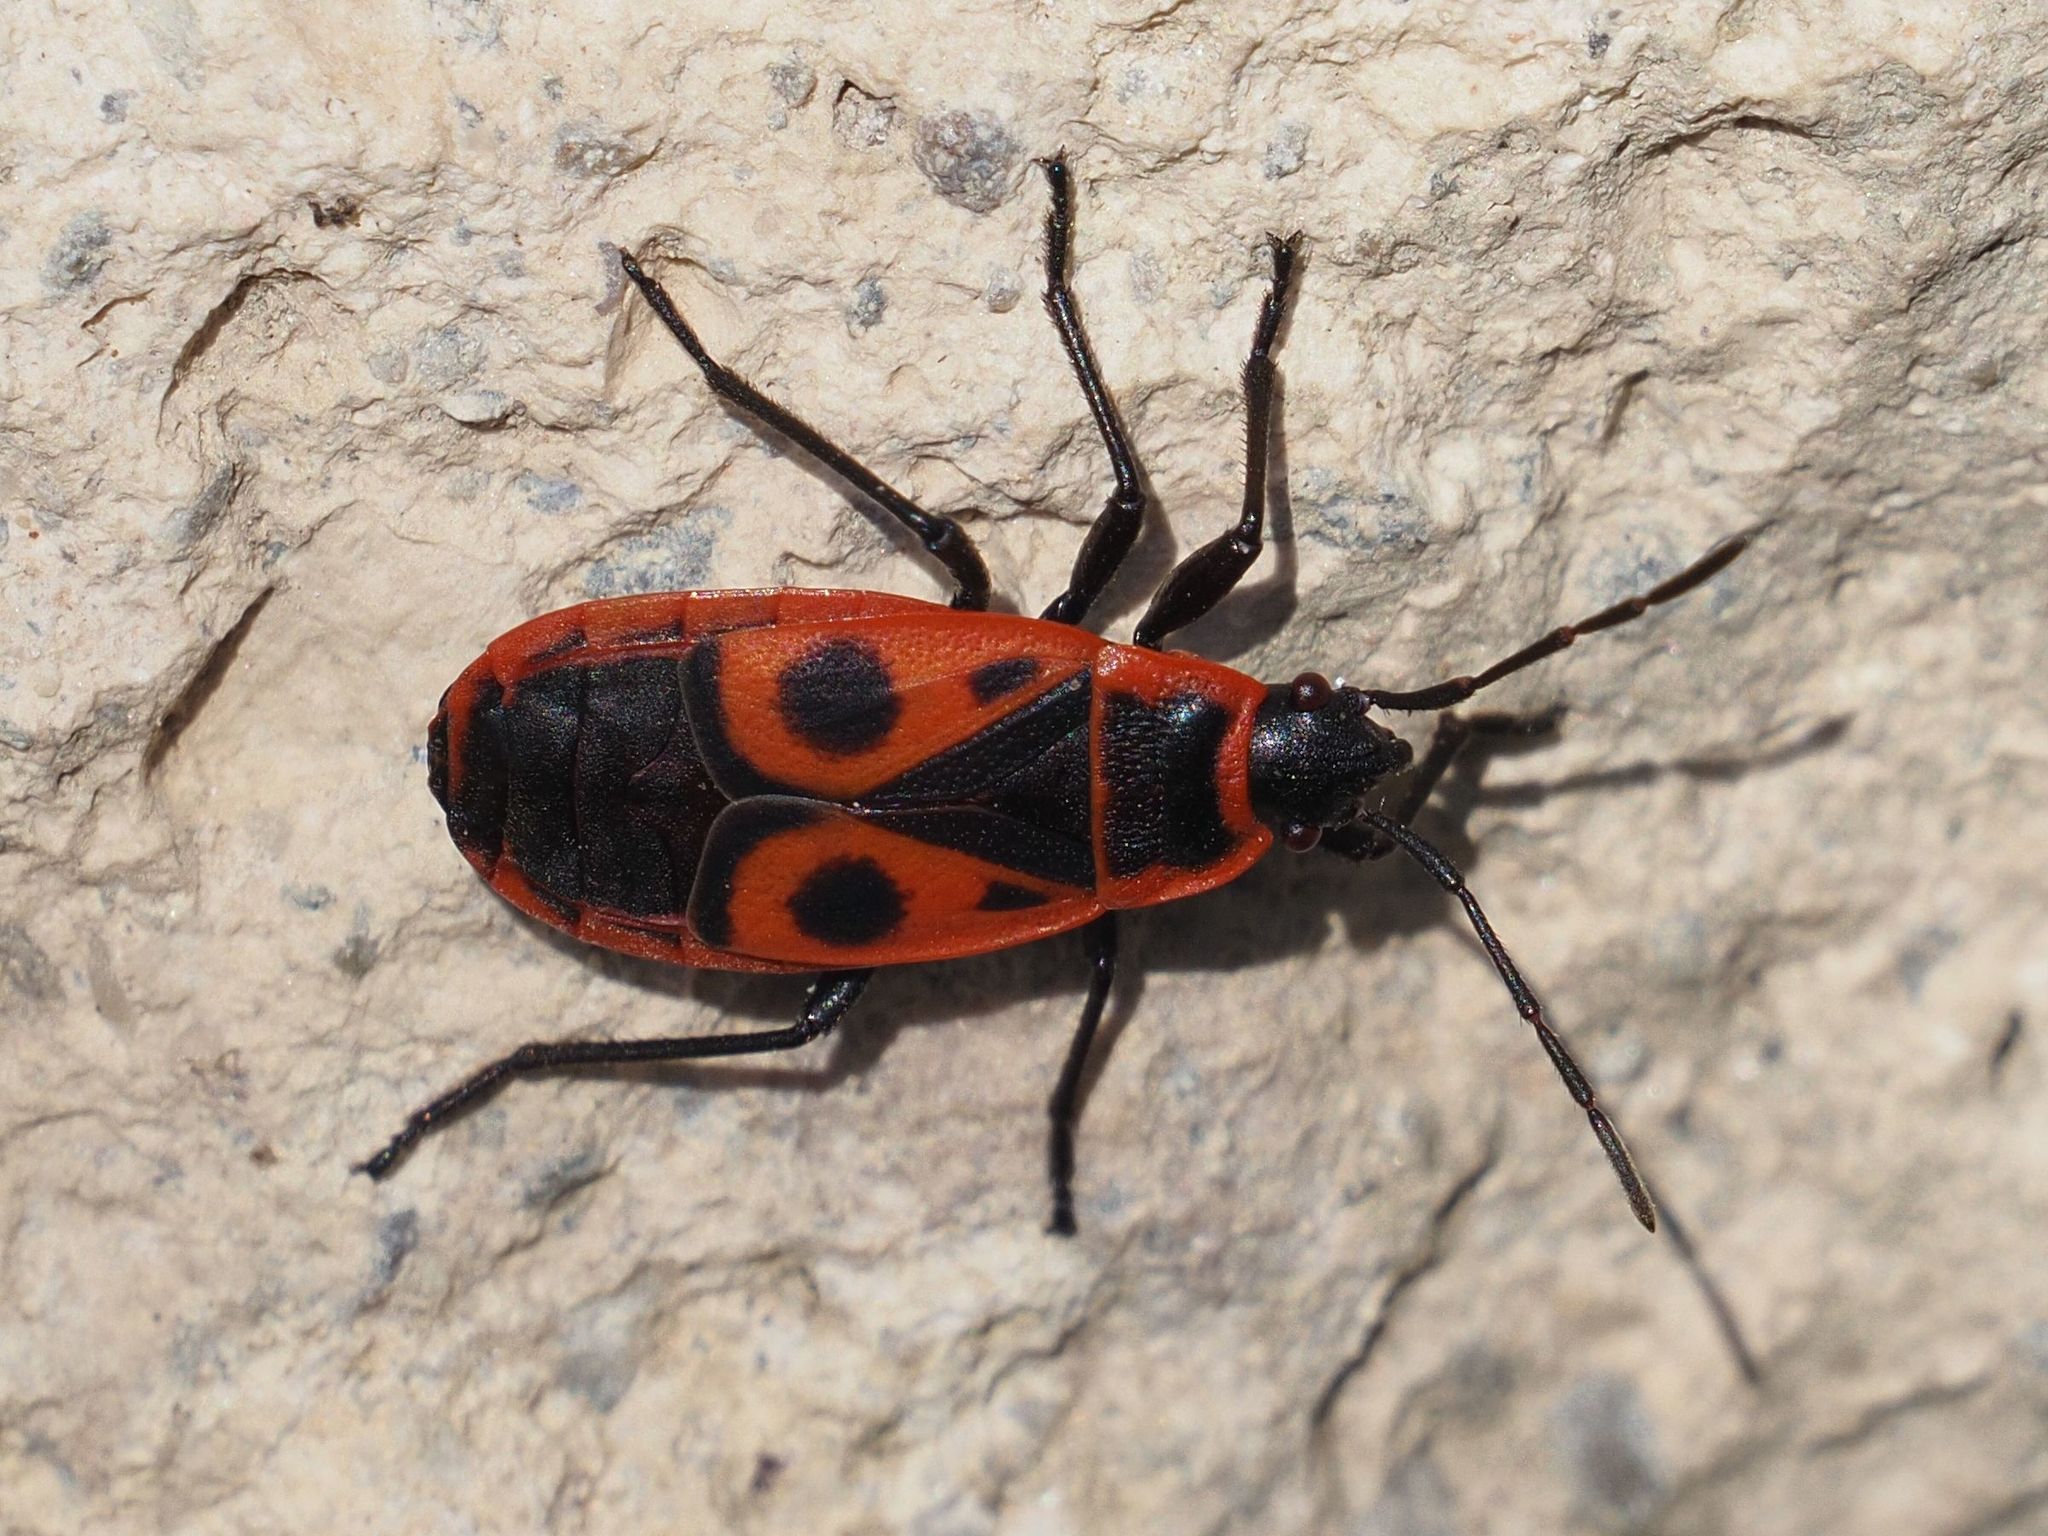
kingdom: Animalia
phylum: Arthropoda
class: Insecta
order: Hemiptera
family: Pyrrhocoridae
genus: Pyrrhocoris
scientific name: Pyrrhocoris apterus
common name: Firebug
